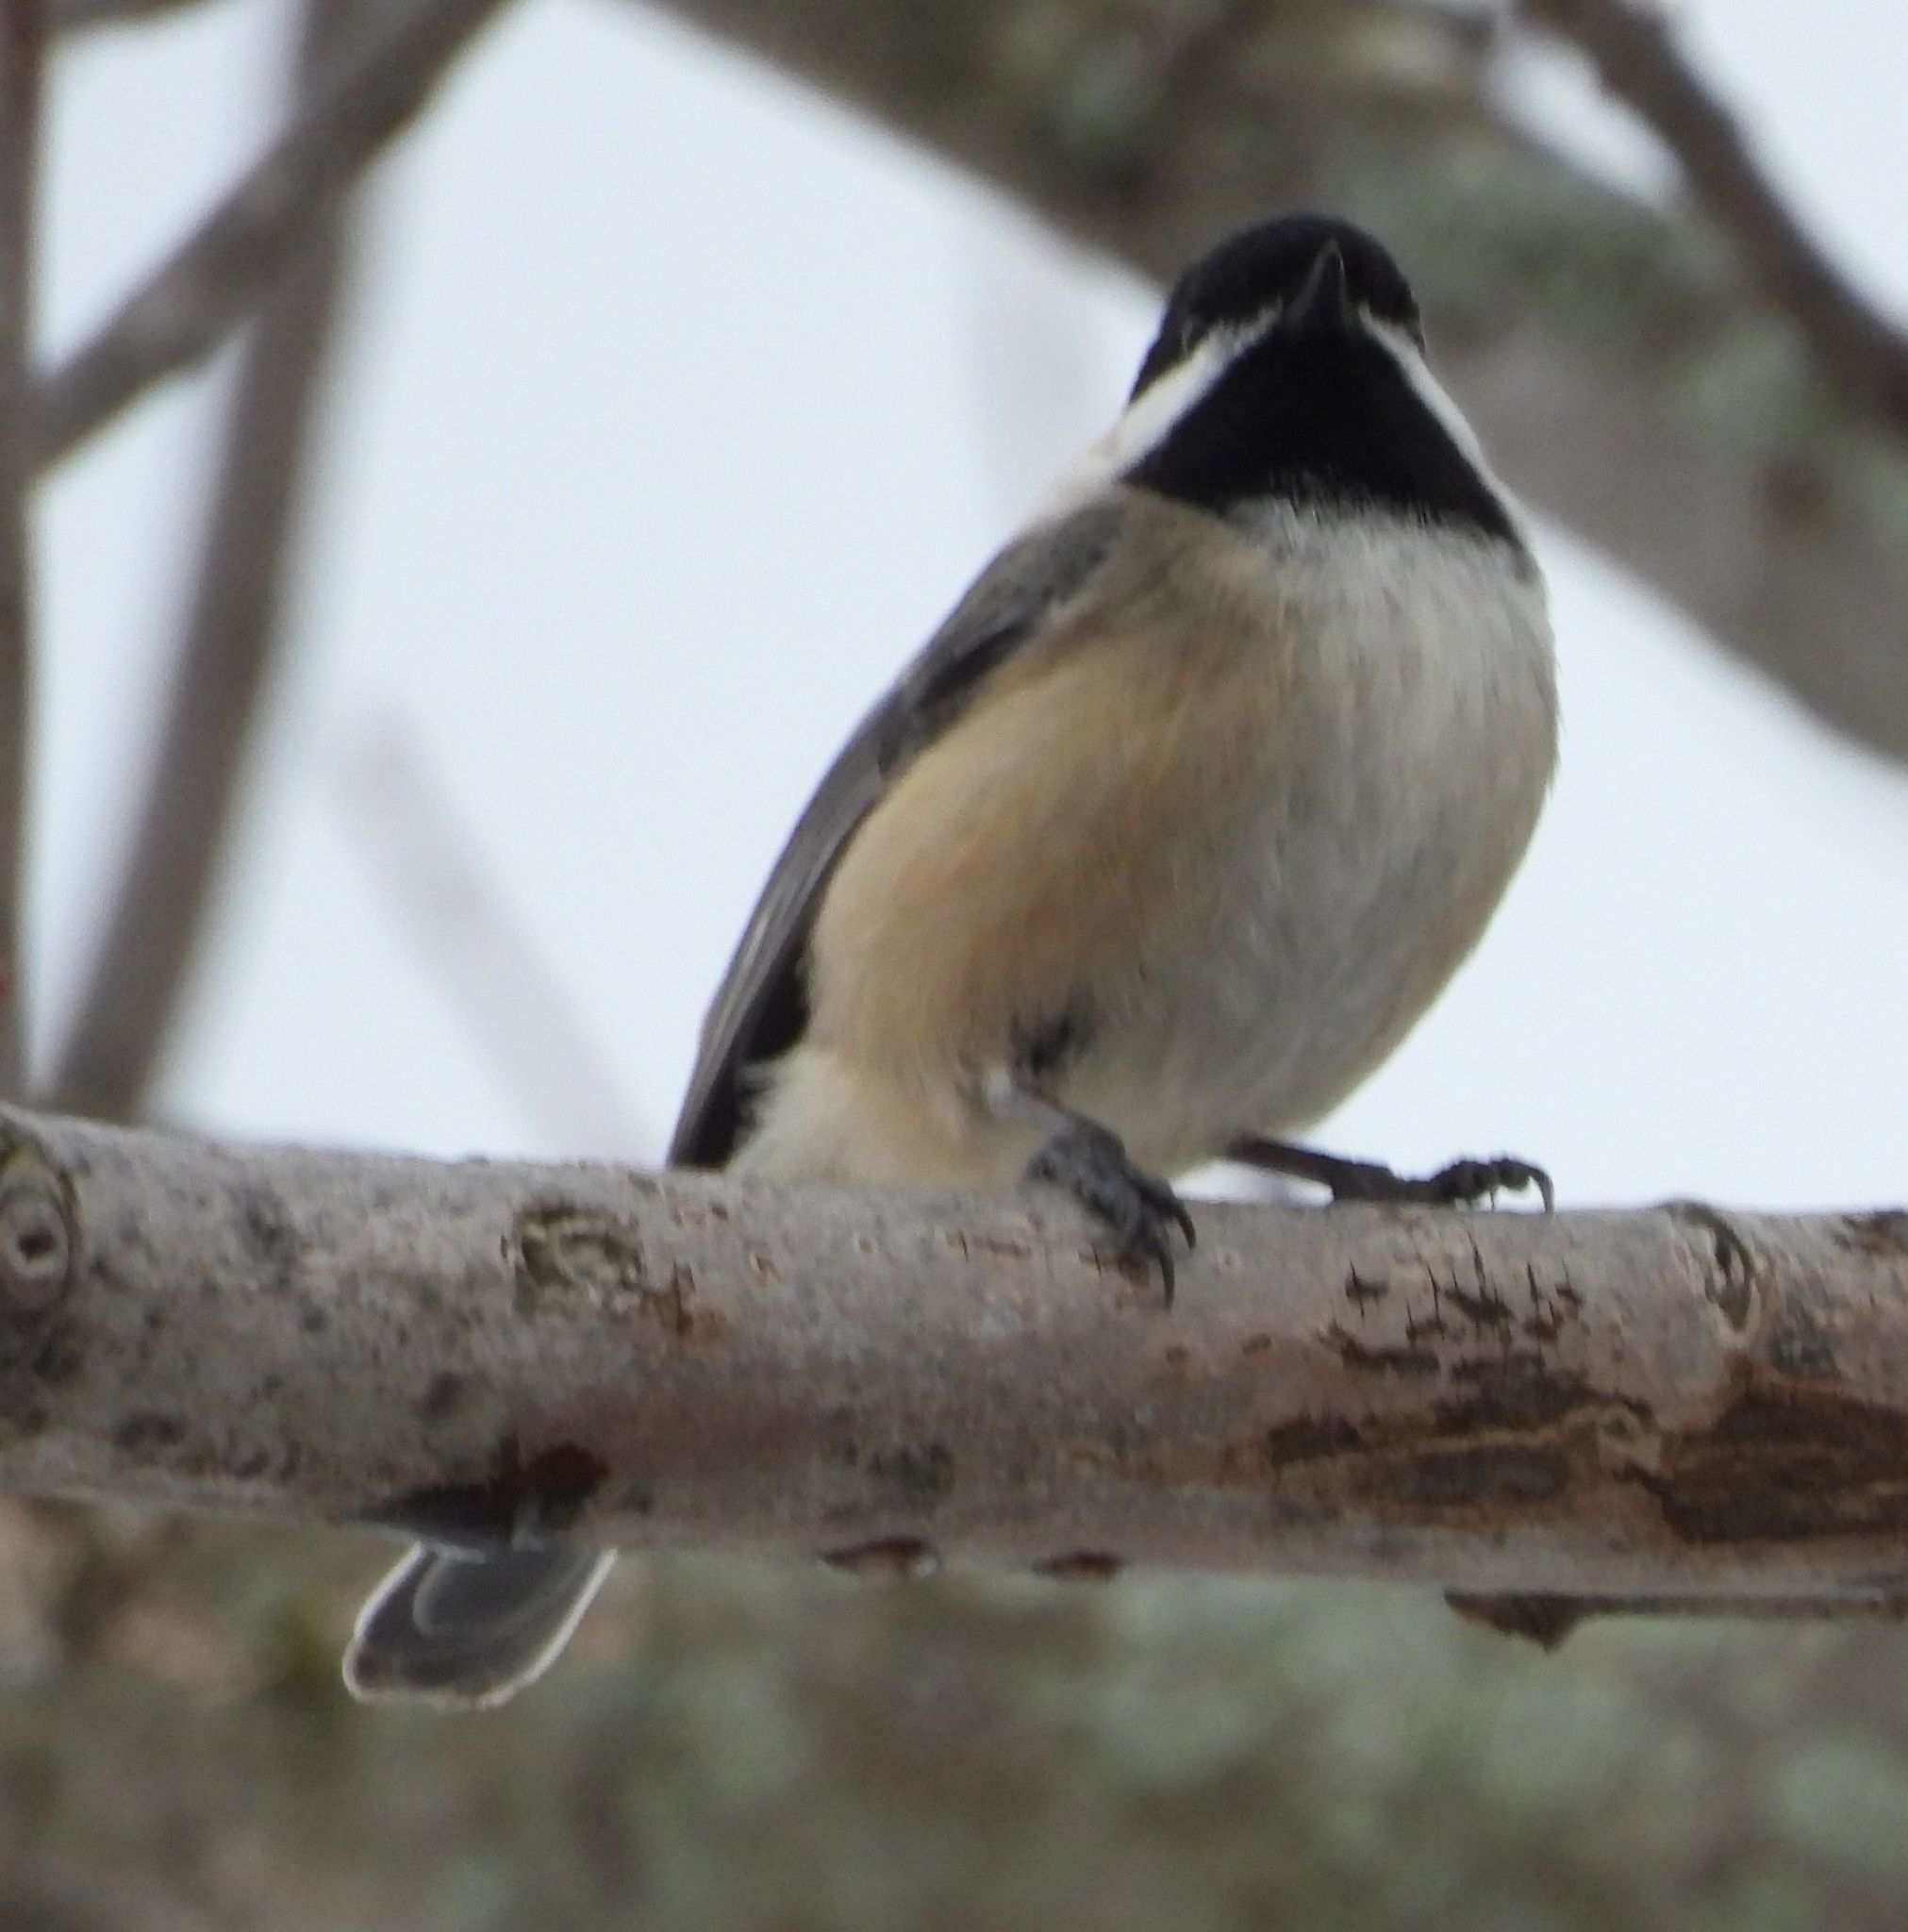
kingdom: Animalia
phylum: Chordata
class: Aves
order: Passeriformes
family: Paridae
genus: Poecile
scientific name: Poecile atricapillus
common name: Black-capped chickadee
